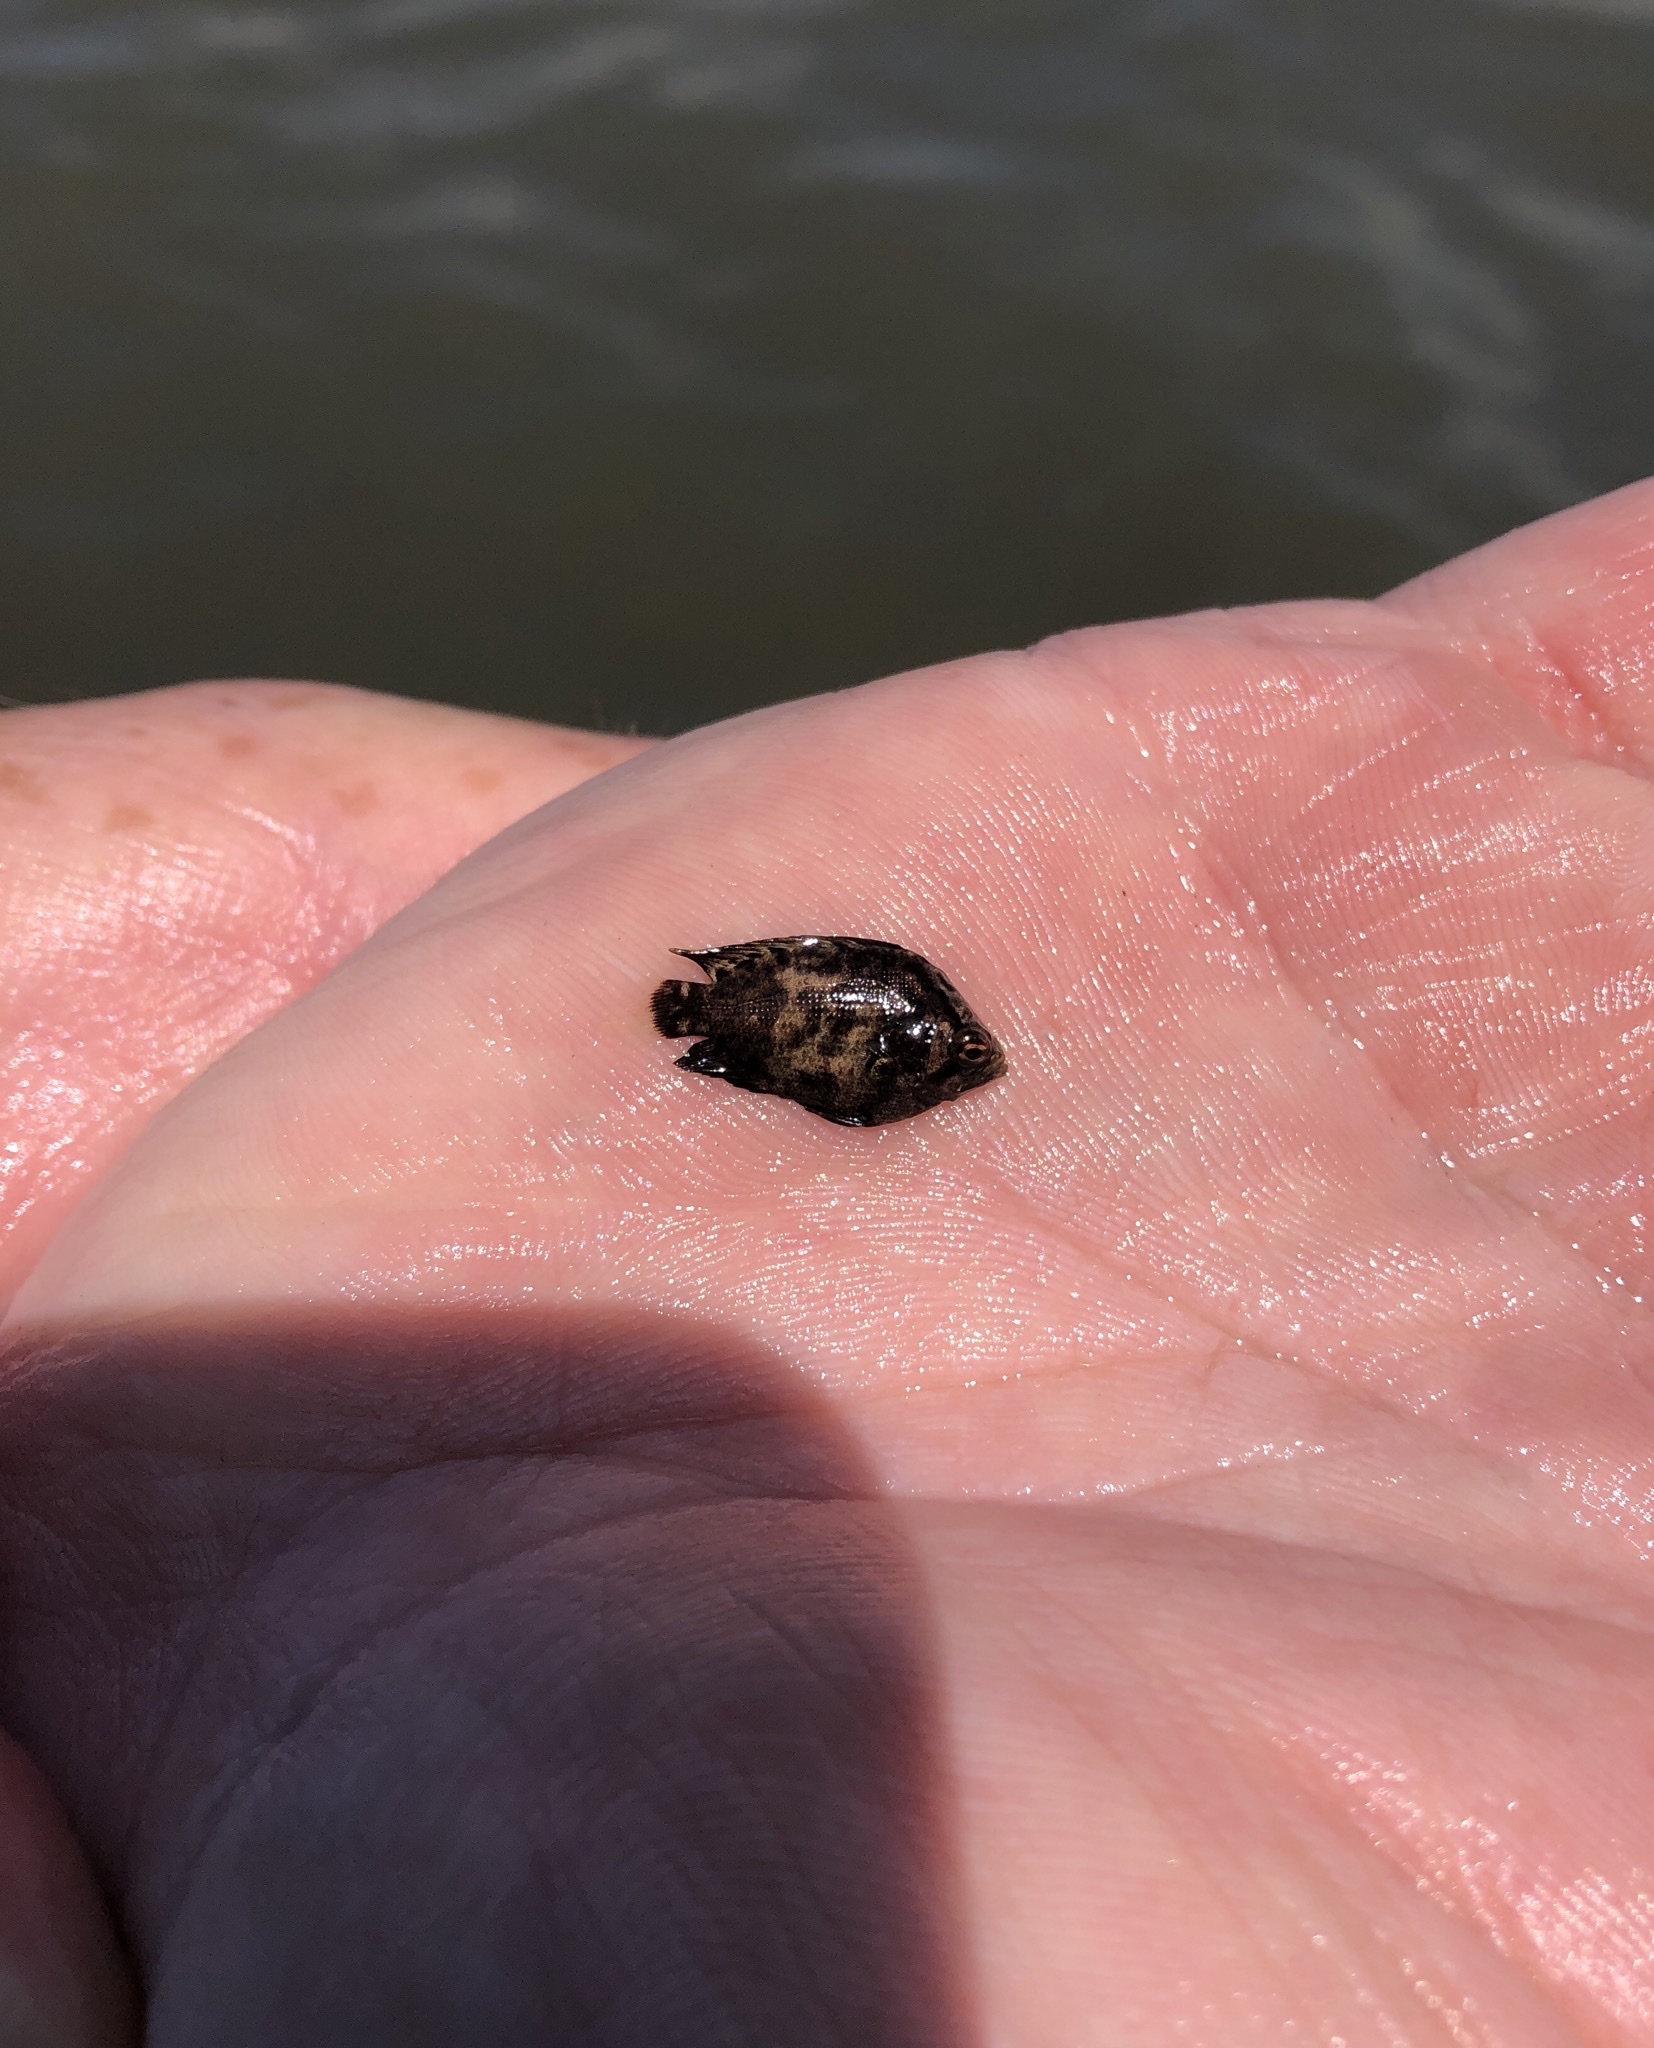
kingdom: Animalia
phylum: Chordata
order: Perciformes
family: Lobotidae
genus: Lobotes
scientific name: Lobotes surinamensis
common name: Atlantic tripletail
